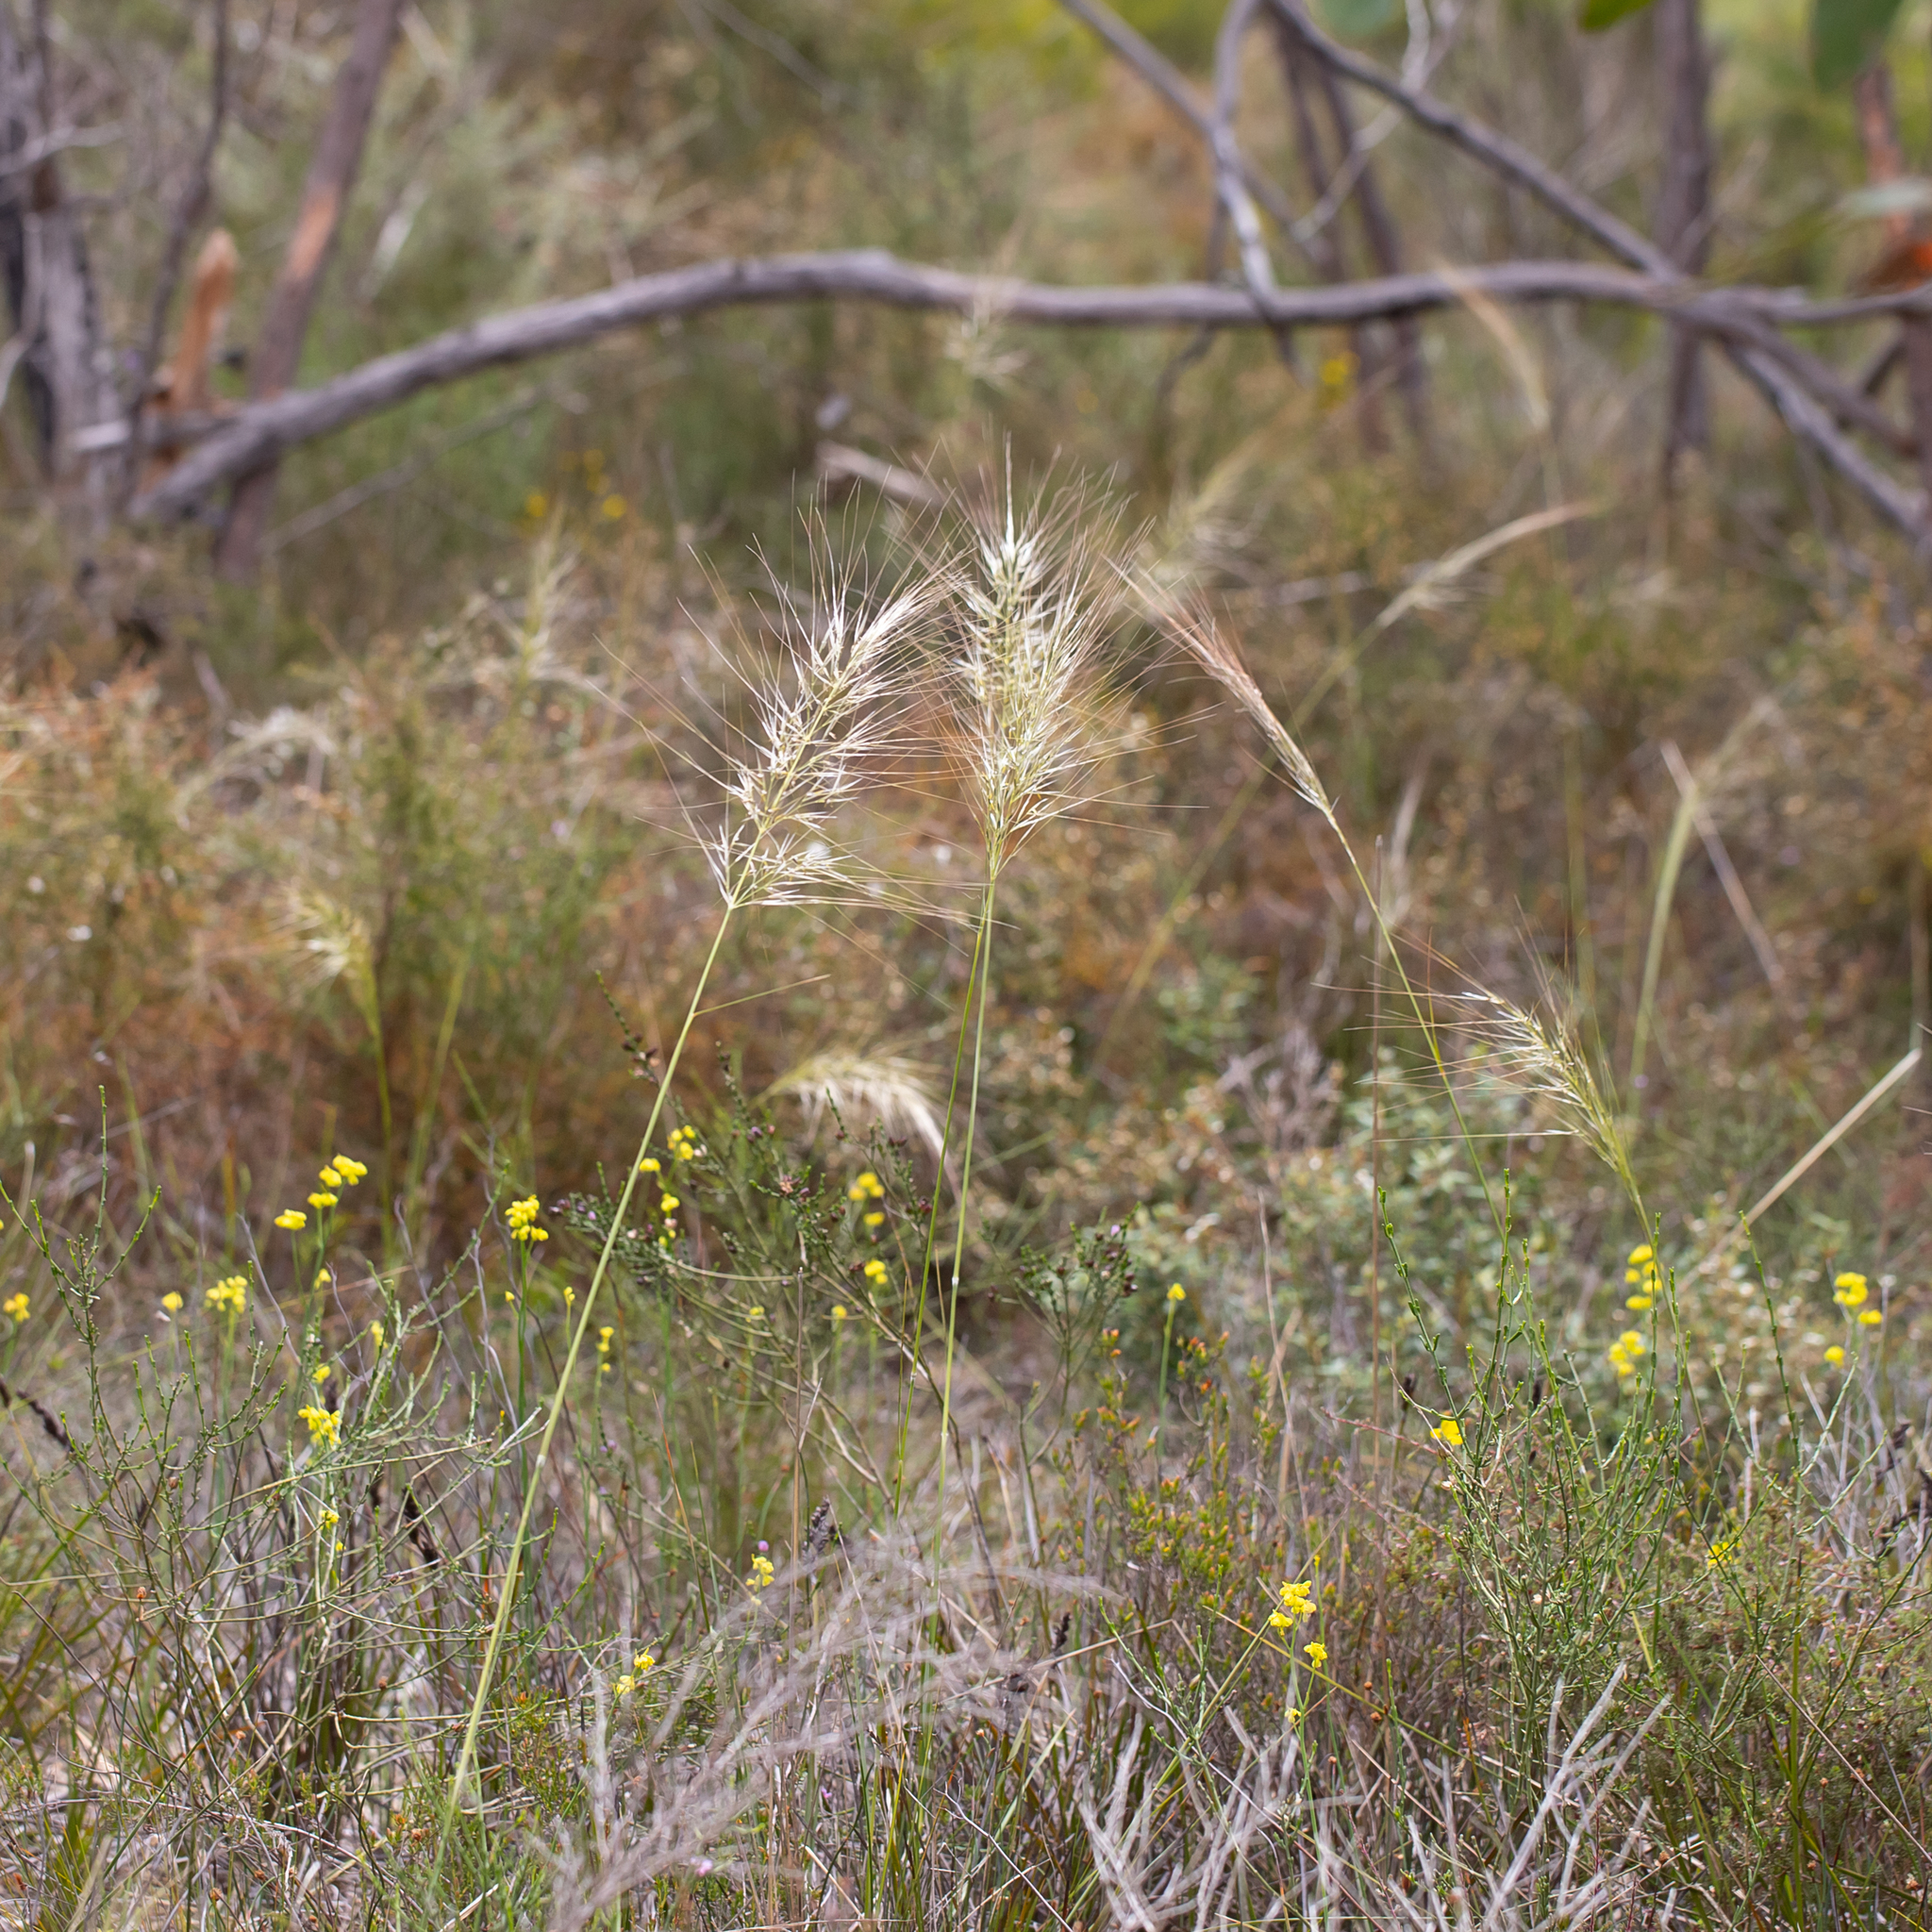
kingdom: Plantae
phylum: Tracheophyta
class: Liliopsida
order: Poales
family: Poaceae
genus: Austrostipa
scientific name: Austrostipa mollis
